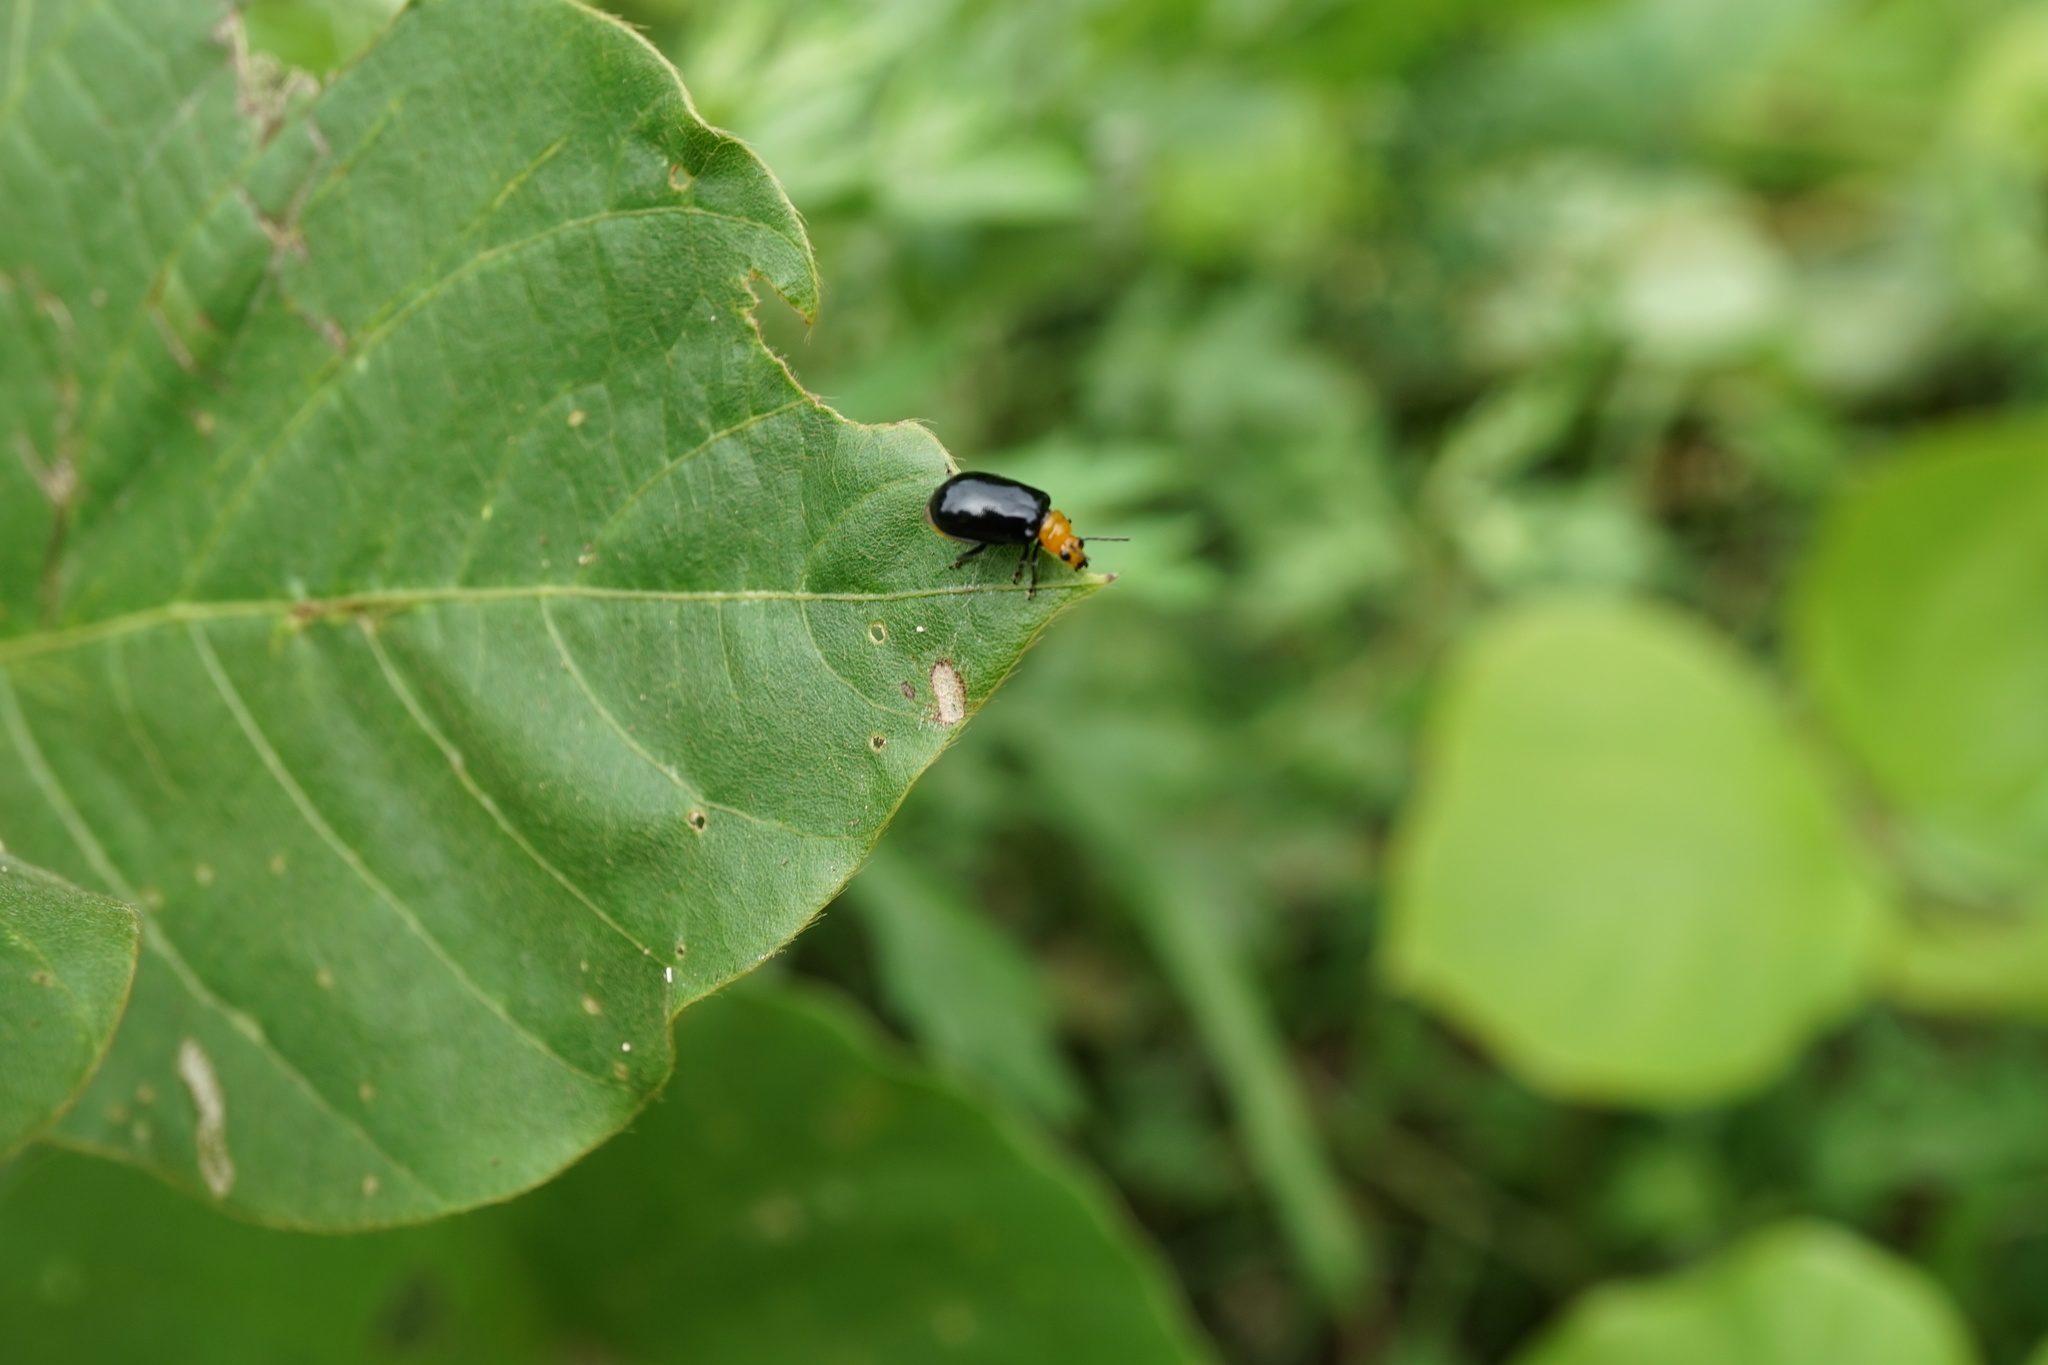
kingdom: Animalia
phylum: Arthropoda
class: Insecta
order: Coleoptera
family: Chrysomelidae
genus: Aulacophora
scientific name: Aulacophora nigripennis
